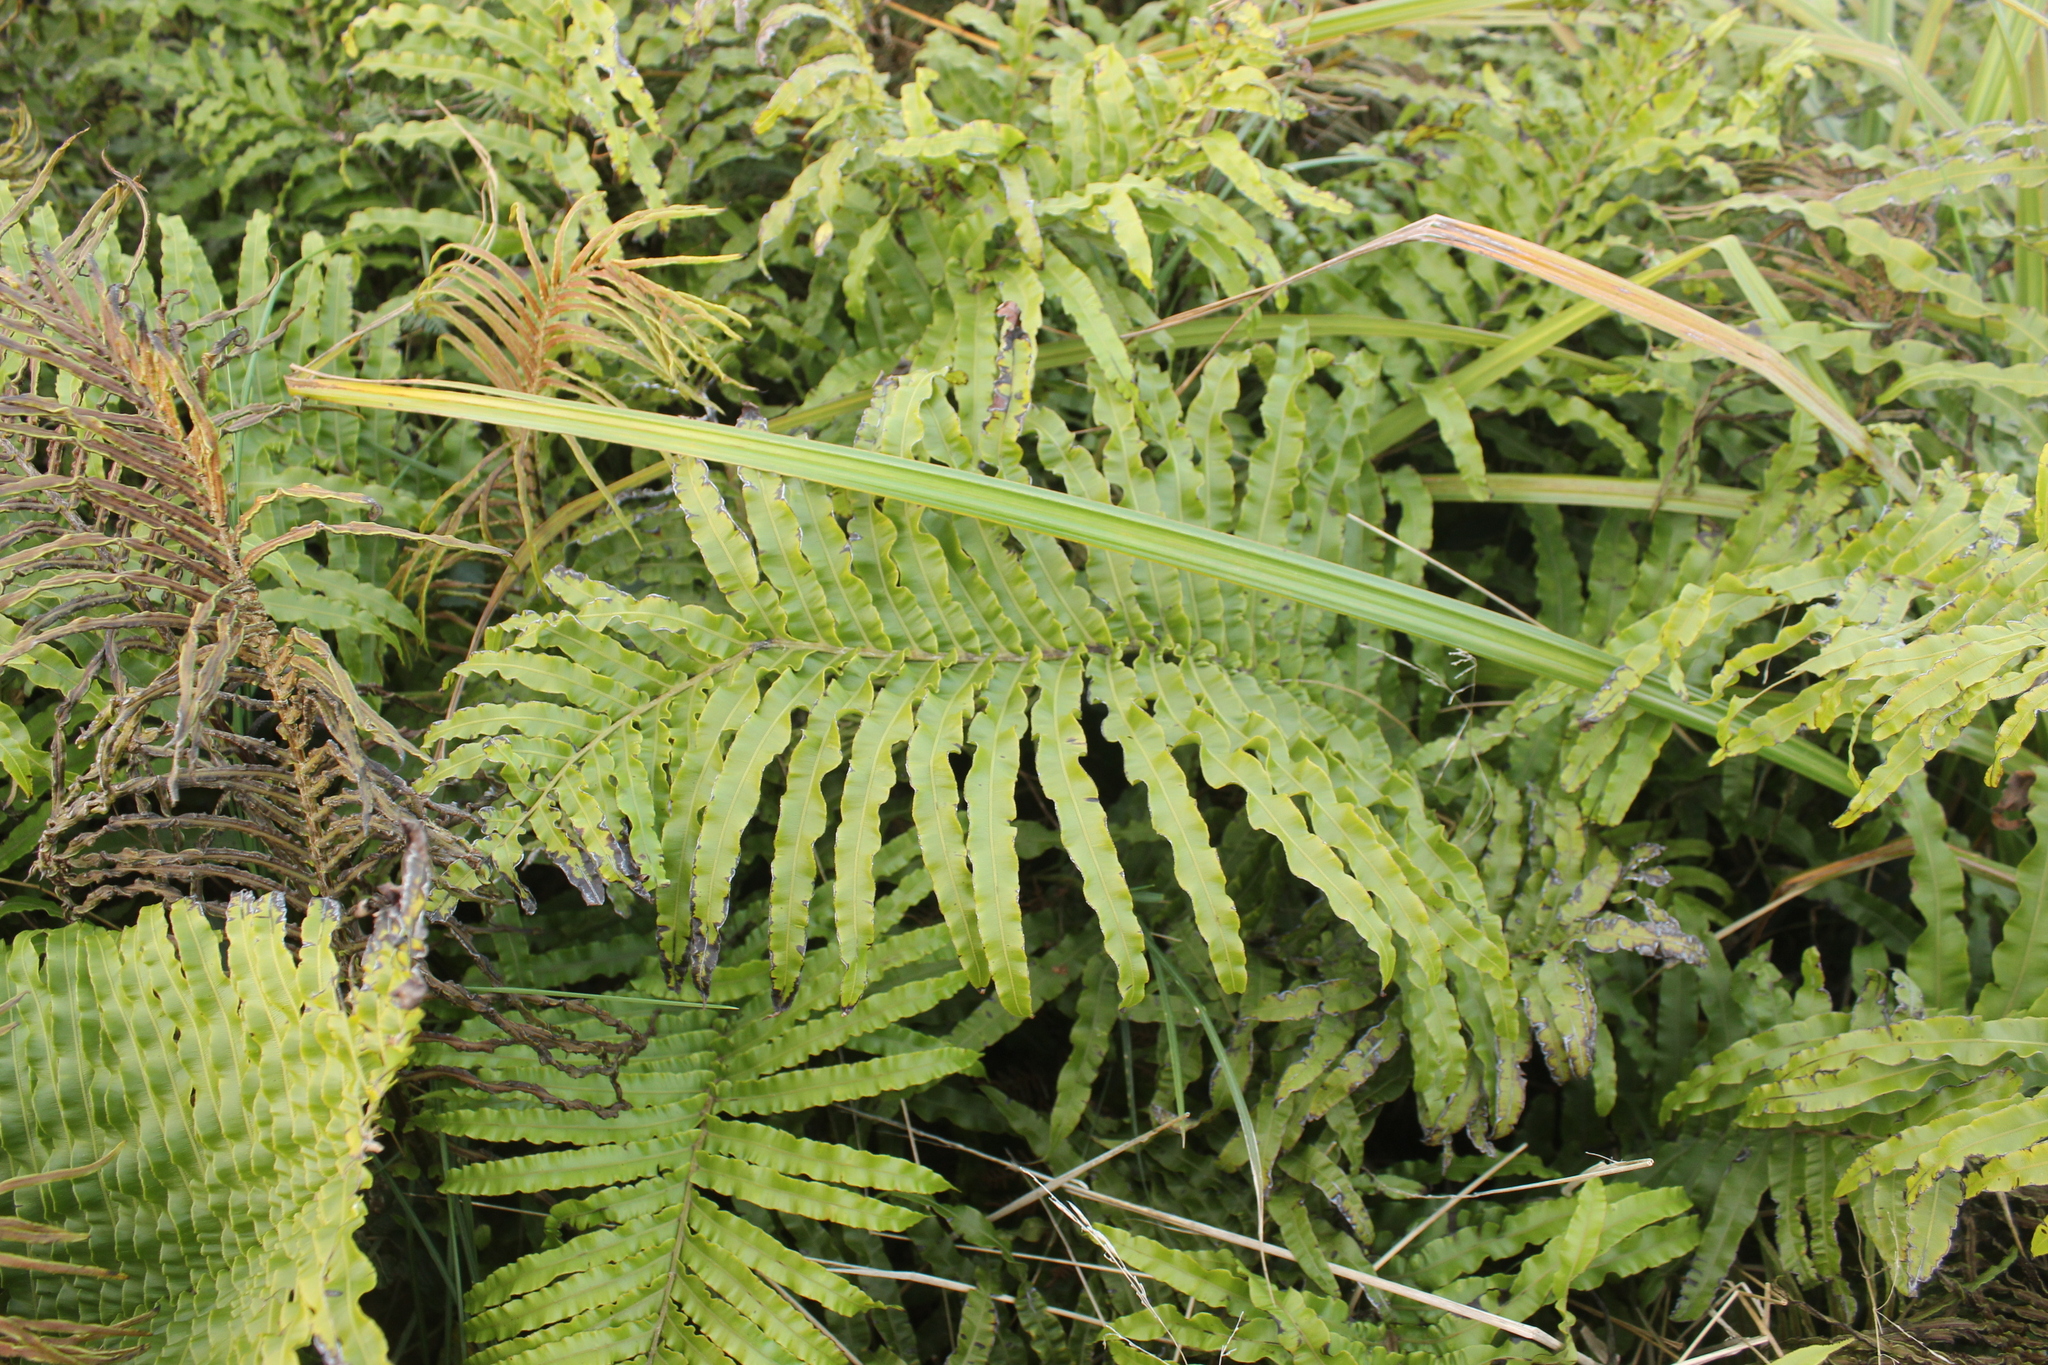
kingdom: Plantae
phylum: Tracheophyta
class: Polypodiopsida
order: Polypodiales
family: Blechnaceae
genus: Parablechnum
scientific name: Parablechnum minus
